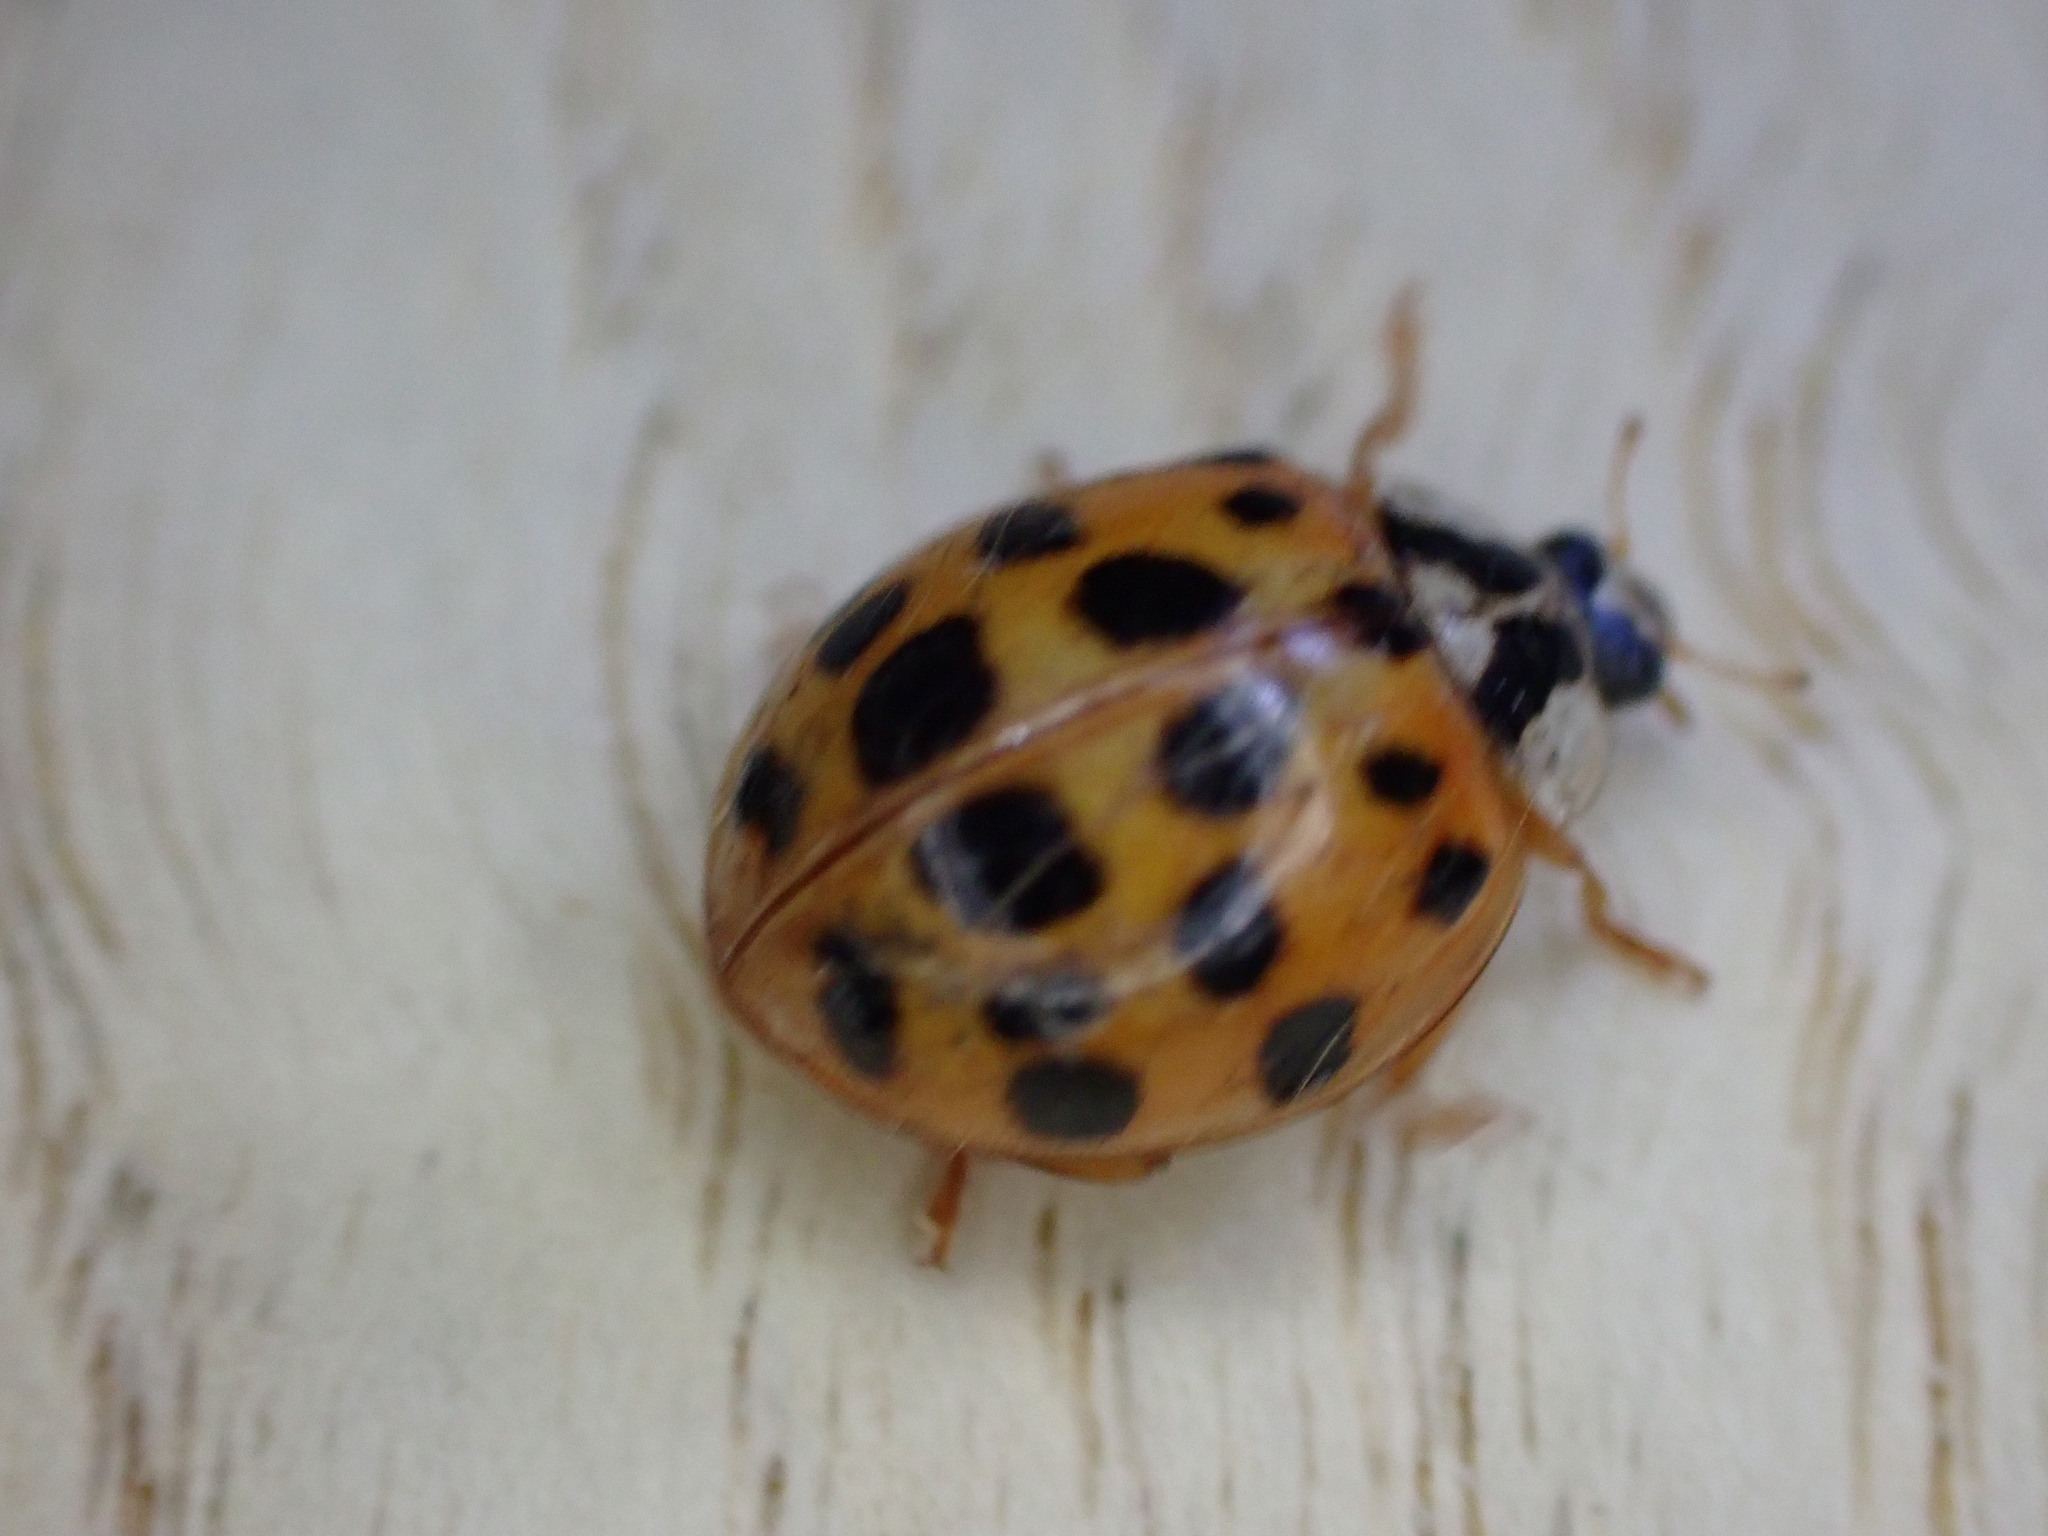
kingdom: Animalia
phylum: Arthropoda
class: Insecta
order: Coleoptera
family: Coccinellidae
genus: Harmonia
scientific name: Harmonia axyridis
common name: Harlequin ladybird
